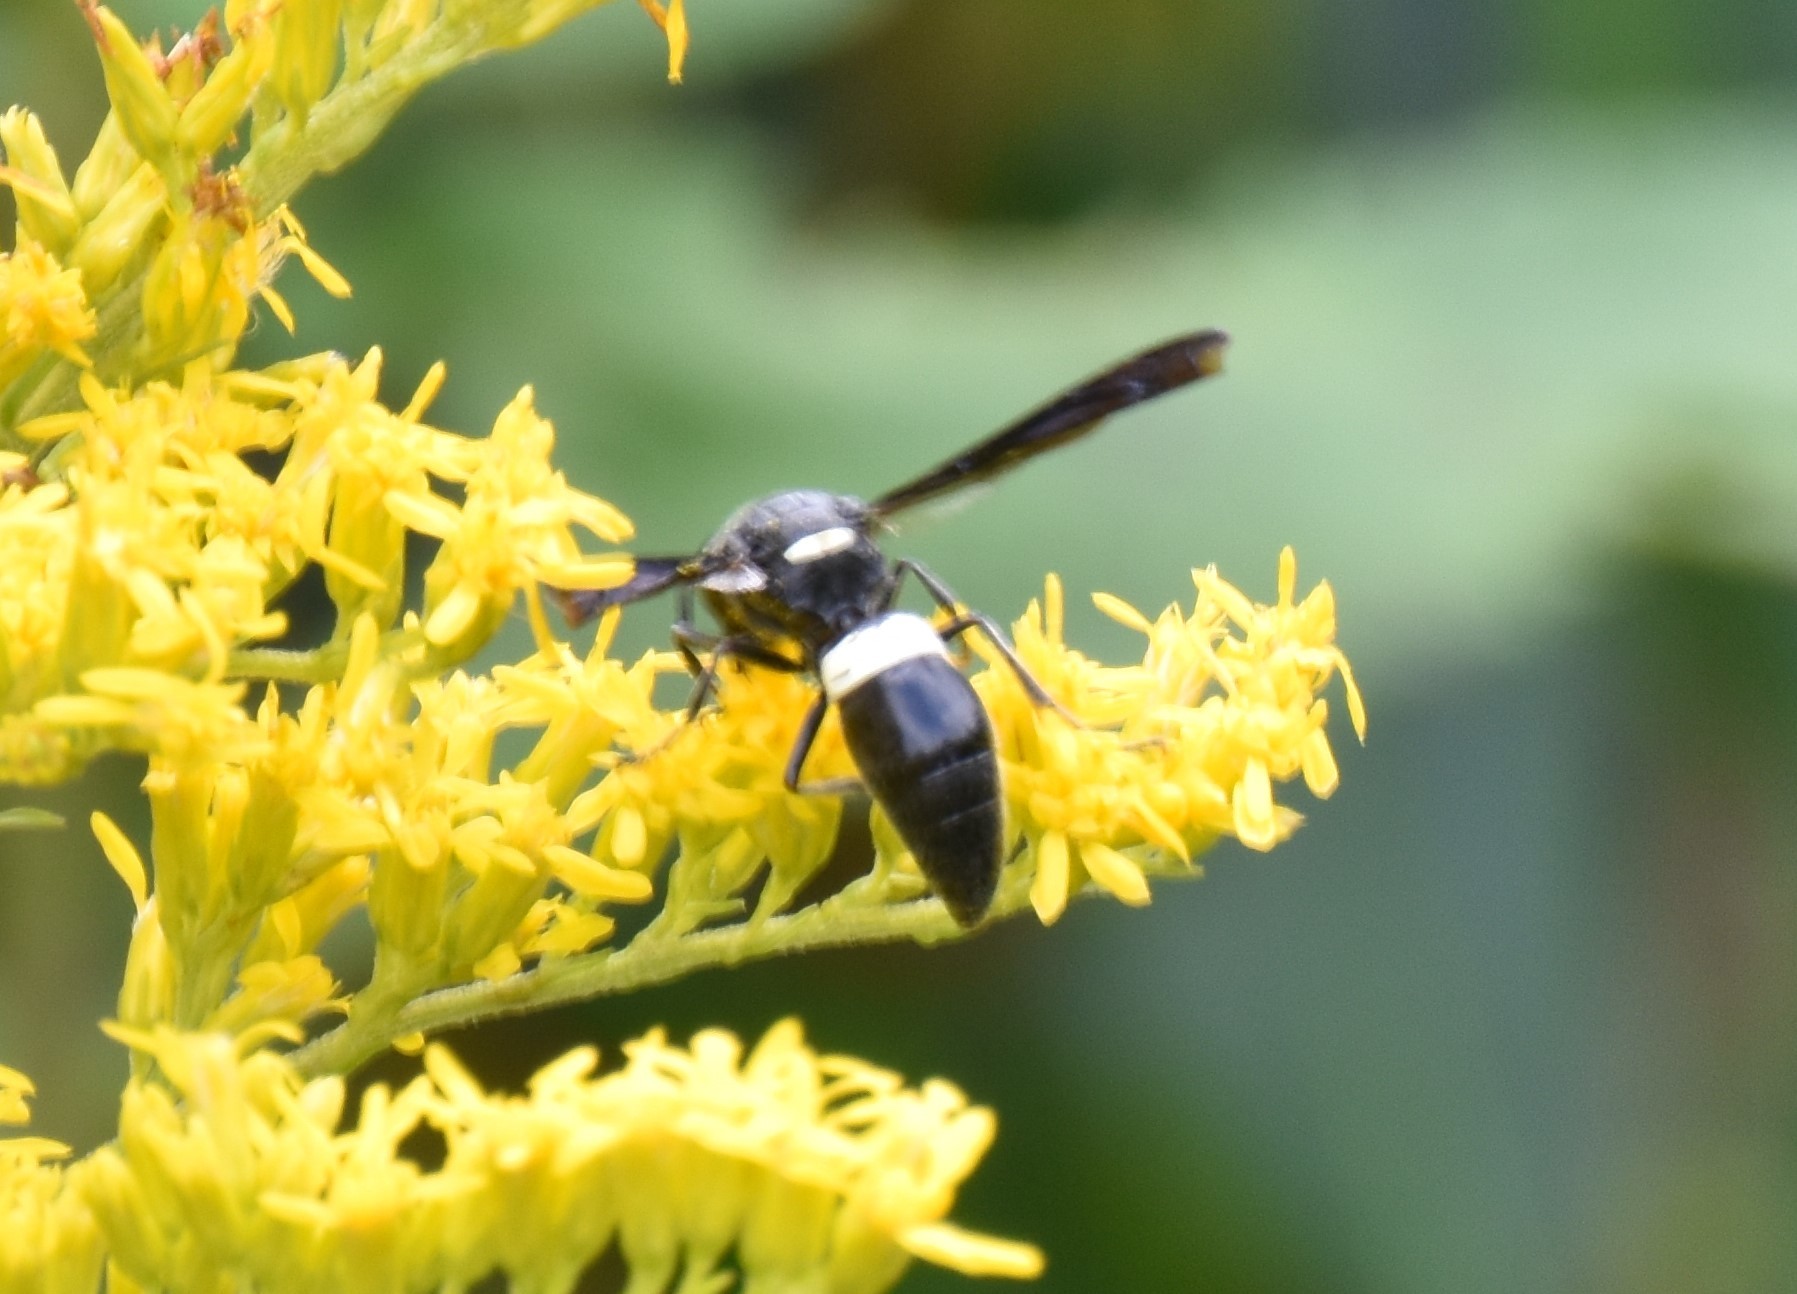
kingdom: Animalia
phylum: Arthropoda
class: Insecta
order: Hymenoptera
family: Eumenidae
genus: Monobia
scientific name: Monobia quadridens
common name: Four-toothed mason wasp
